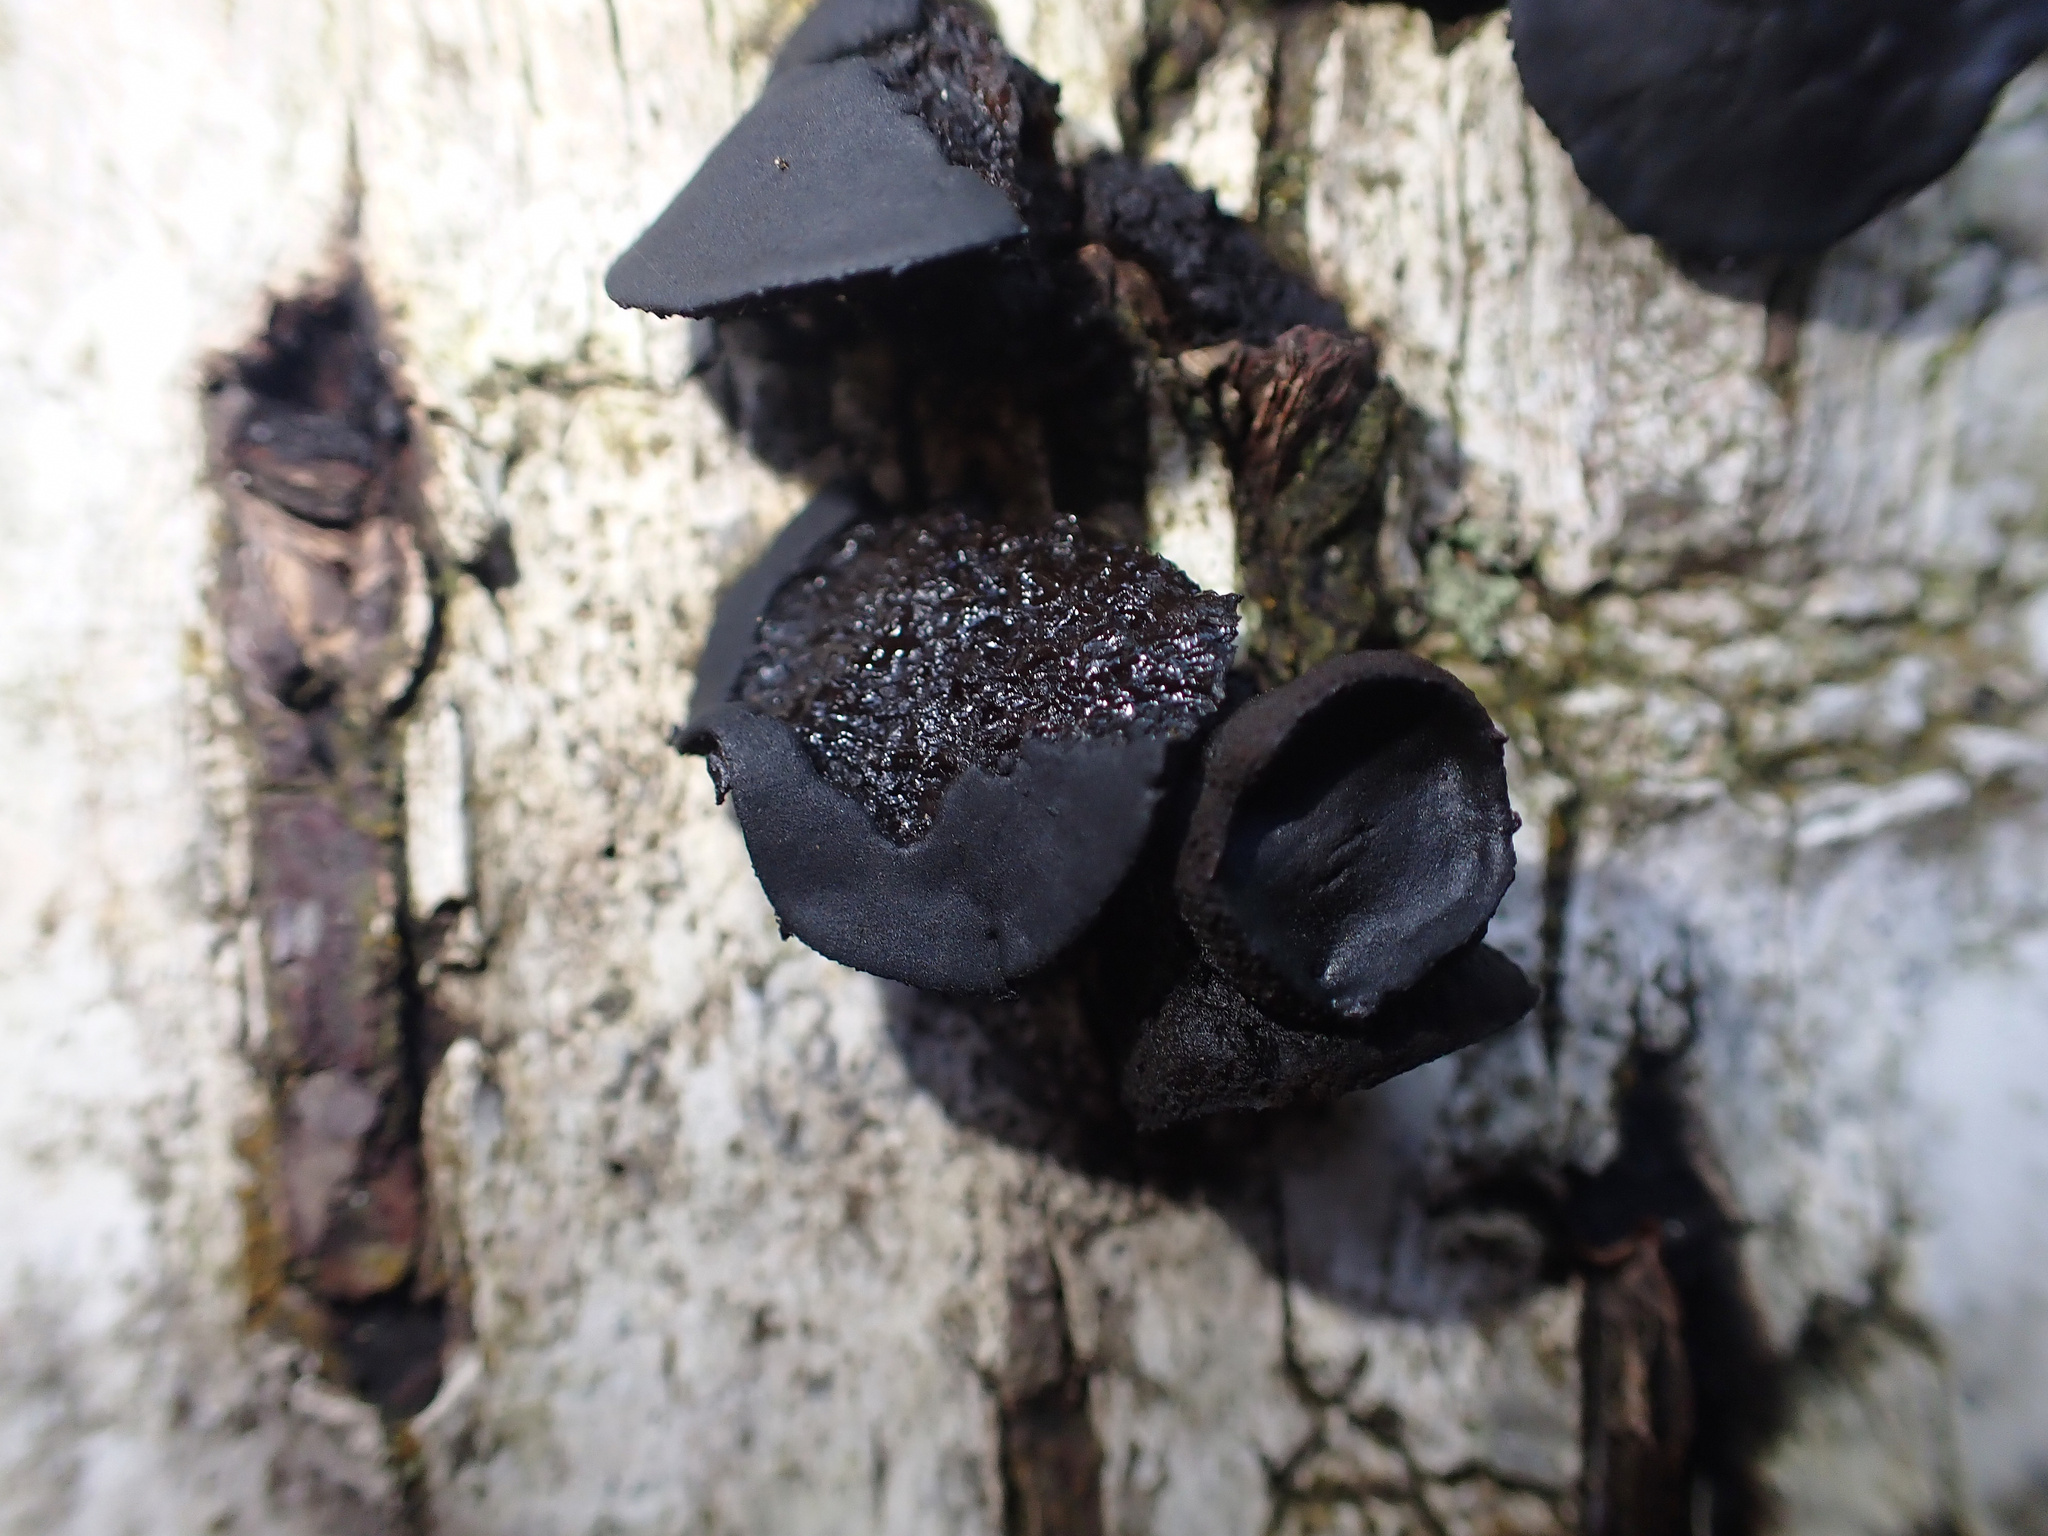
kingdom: Fungi
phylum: Ascomycota
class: Leotiomycetes
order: Phacidiales
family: Phacidiaceae
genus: Bulgaria
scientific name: Bulgaria inquinans
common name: Black bulgar
